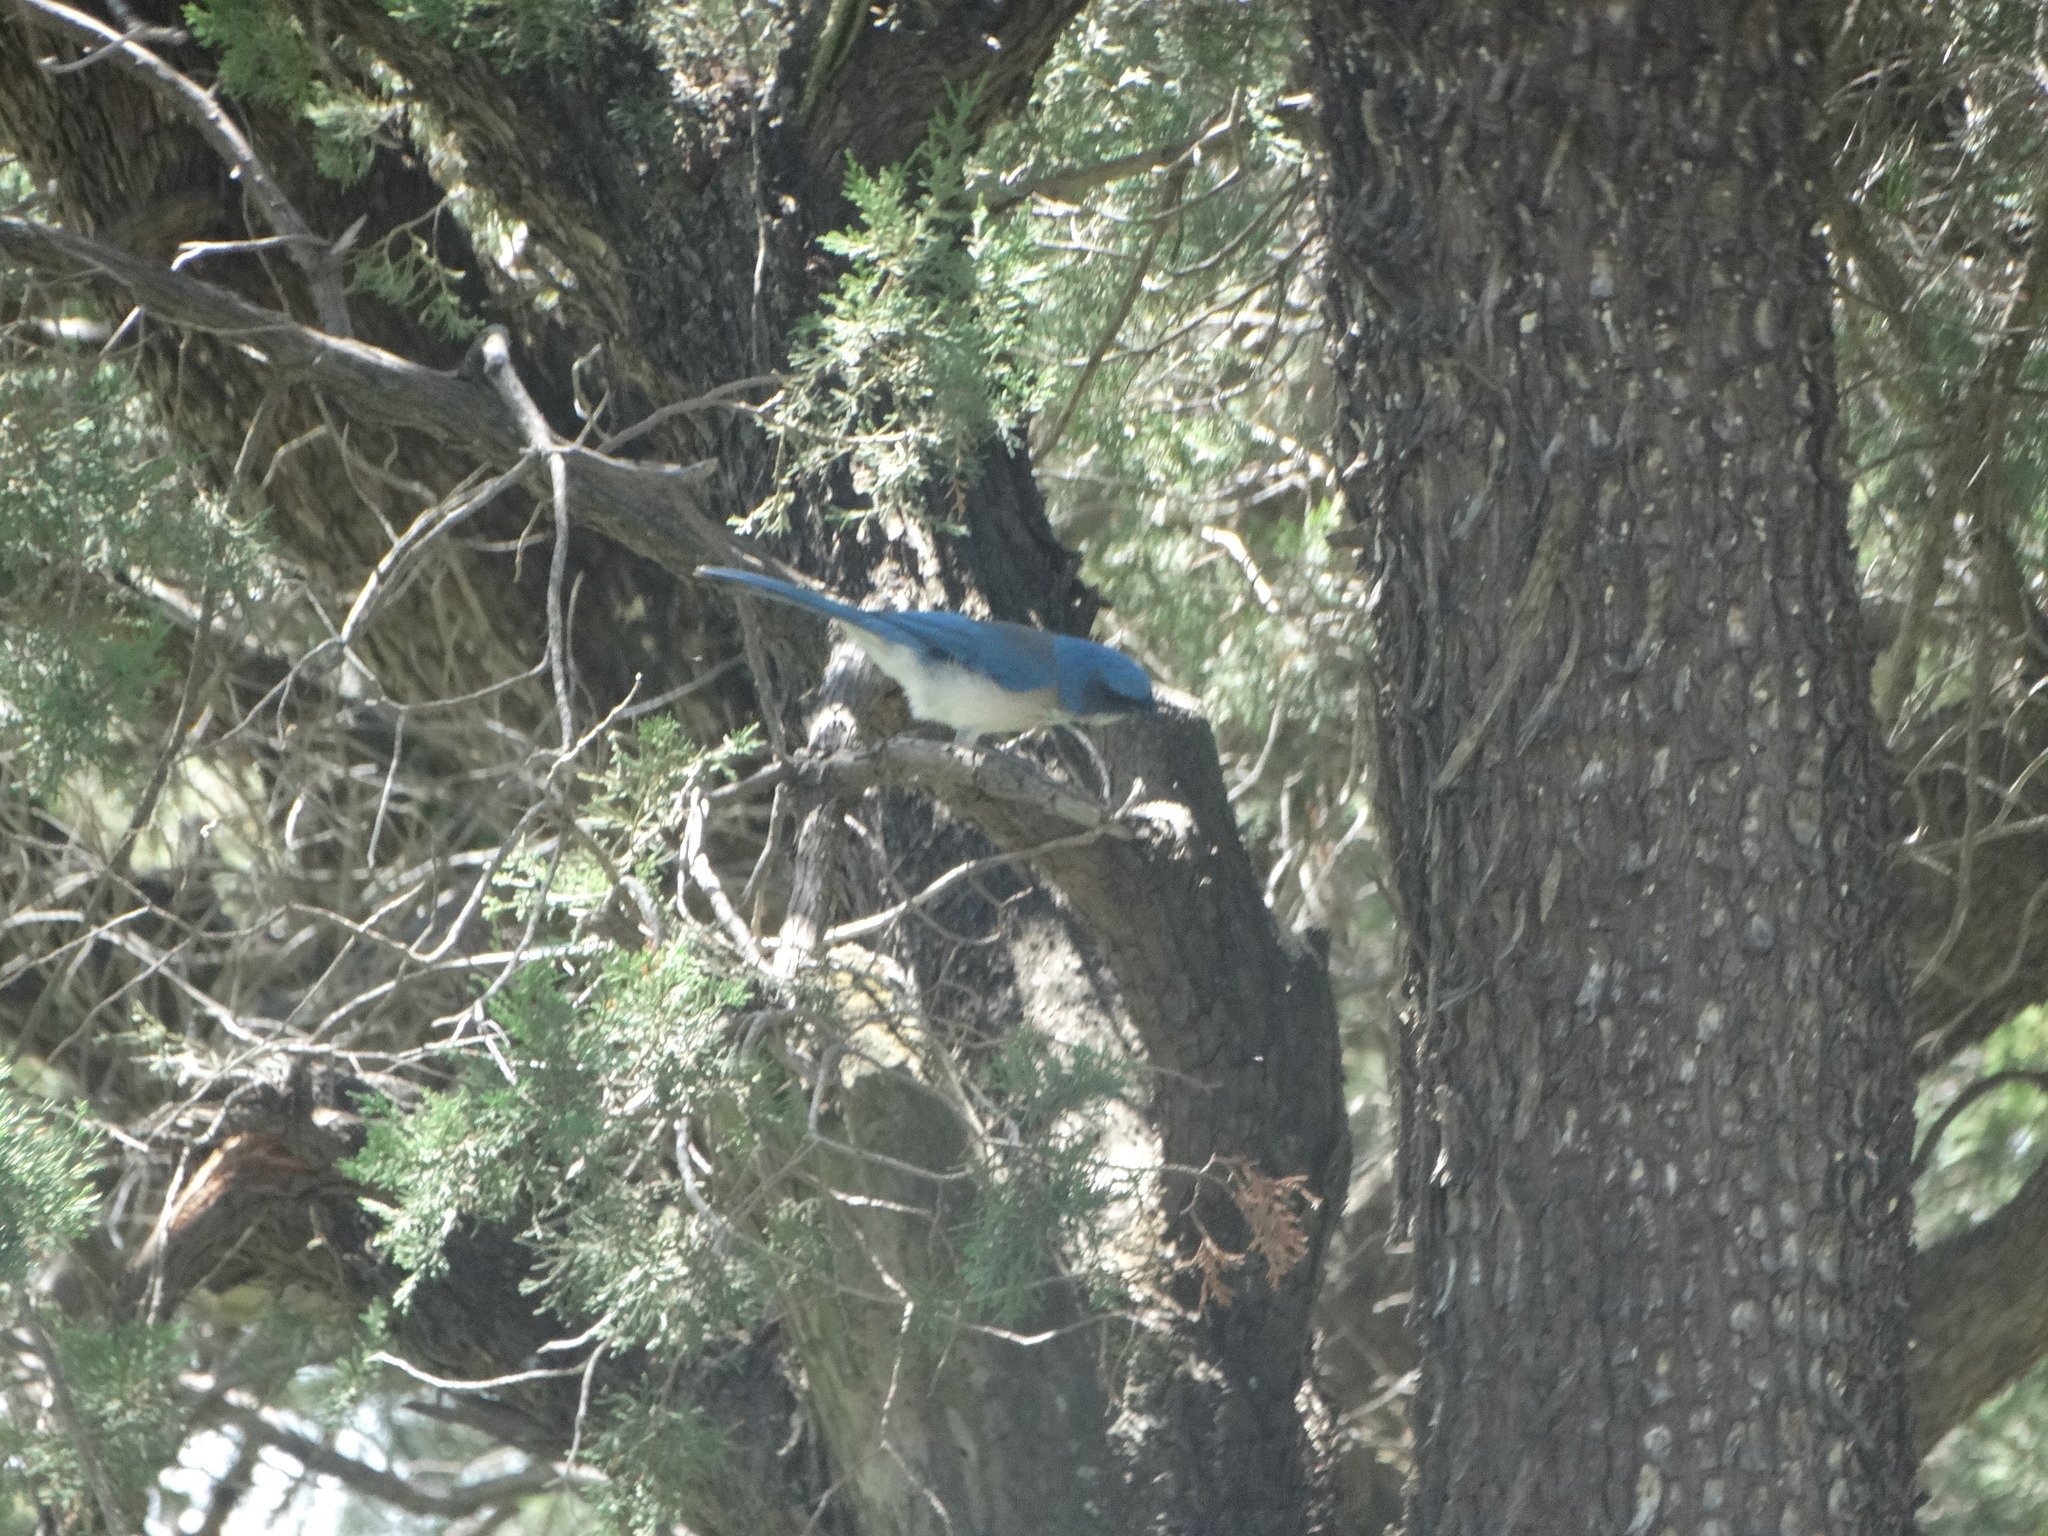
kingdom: Animalia
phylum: Chordata
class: Aves
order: Passeriformes
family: Corvidae
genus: Aphelocoma
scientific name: Aphelocoma woodhouseii
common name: Woodhouse's scrub-jay
